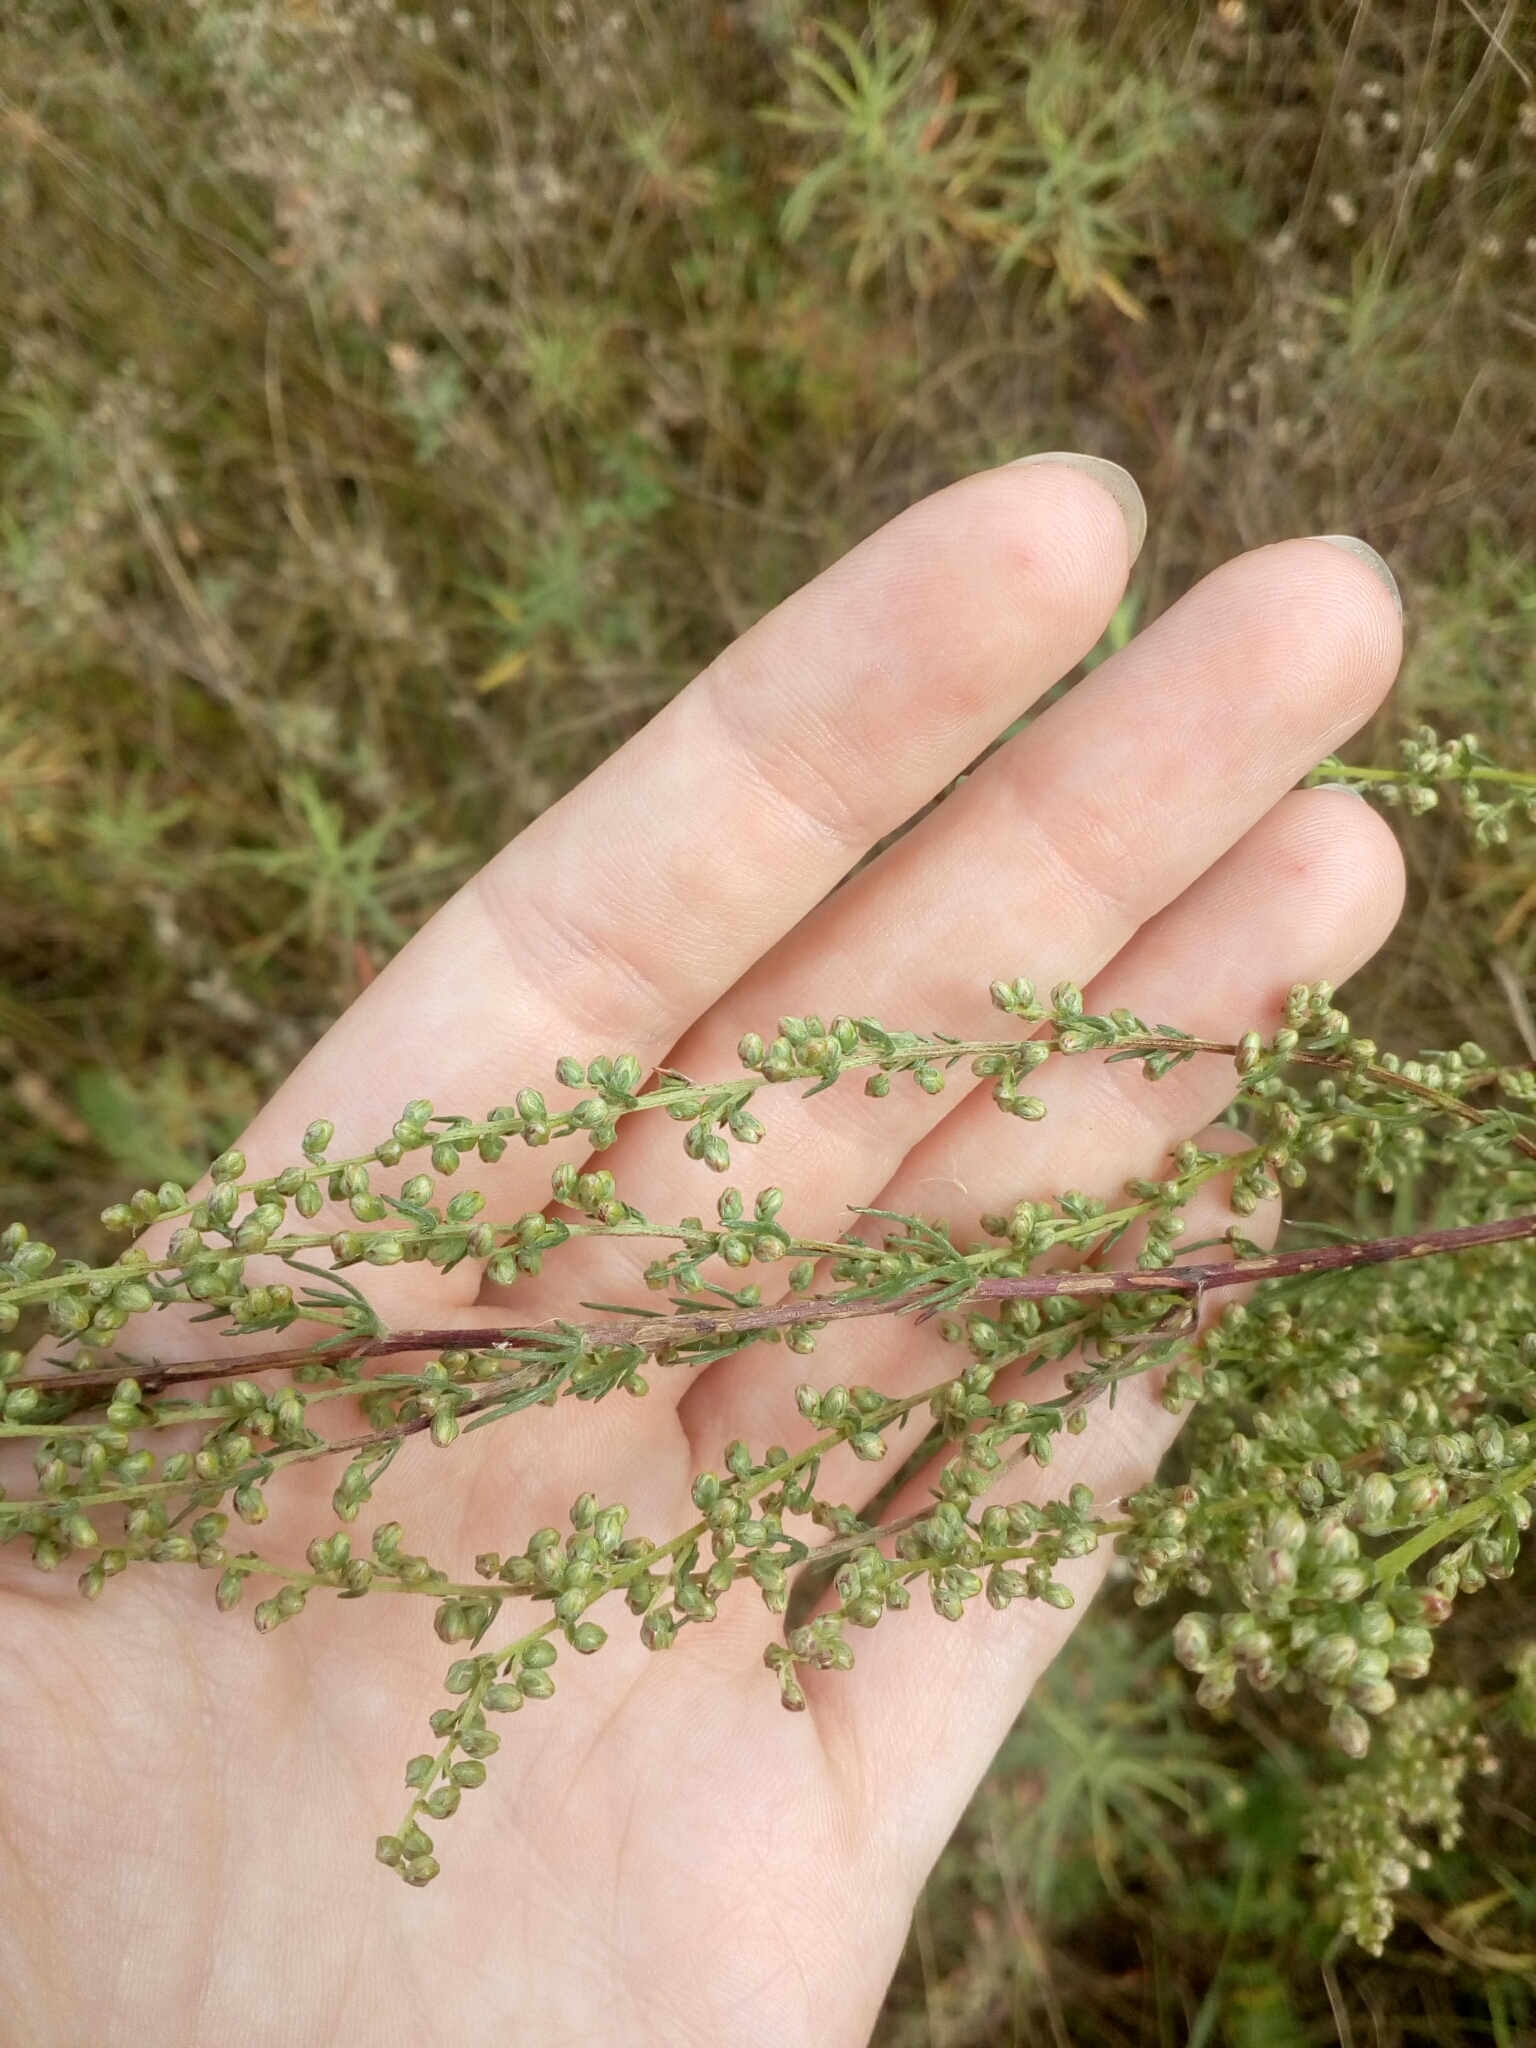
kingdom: Plantae
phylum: Tracheophyta
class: Magnoliopsida
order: Asterales
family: Asteraceae
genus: Artemisia
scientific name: Artemisia campestris
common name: Field wormwood
